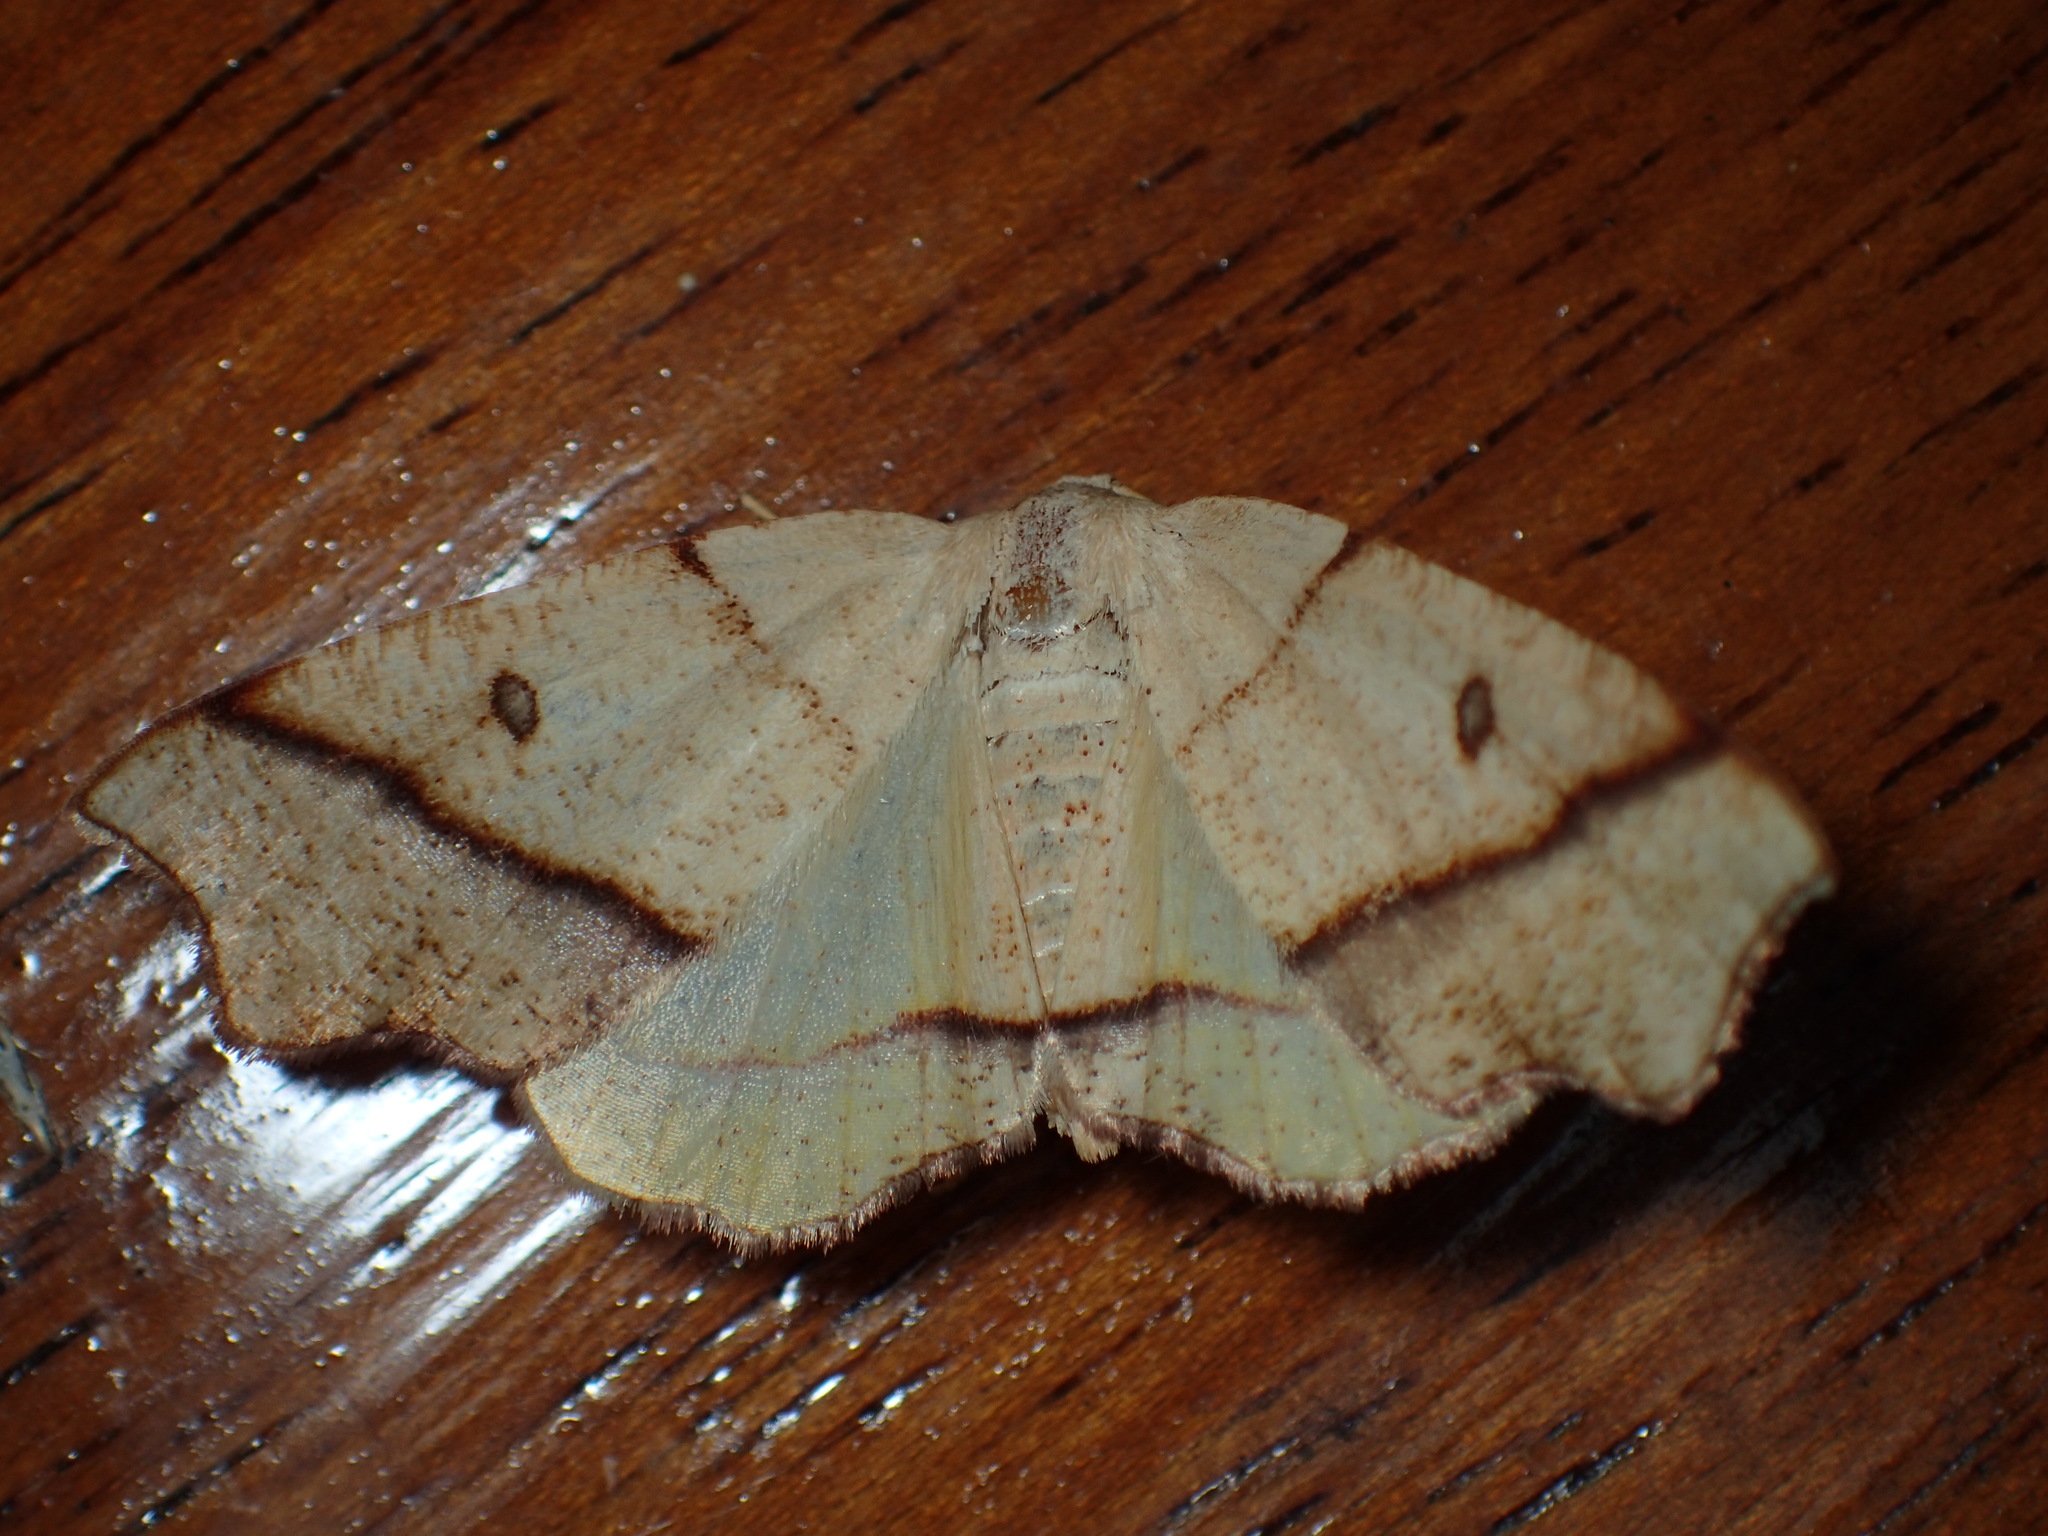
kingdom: Animalia
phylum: Arthropoda
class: Insecta
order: Lepidoptera
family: Geometridae
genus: Plagodis
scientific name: Plagodis alcoolaria
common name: Hollow-spotted plagodis
